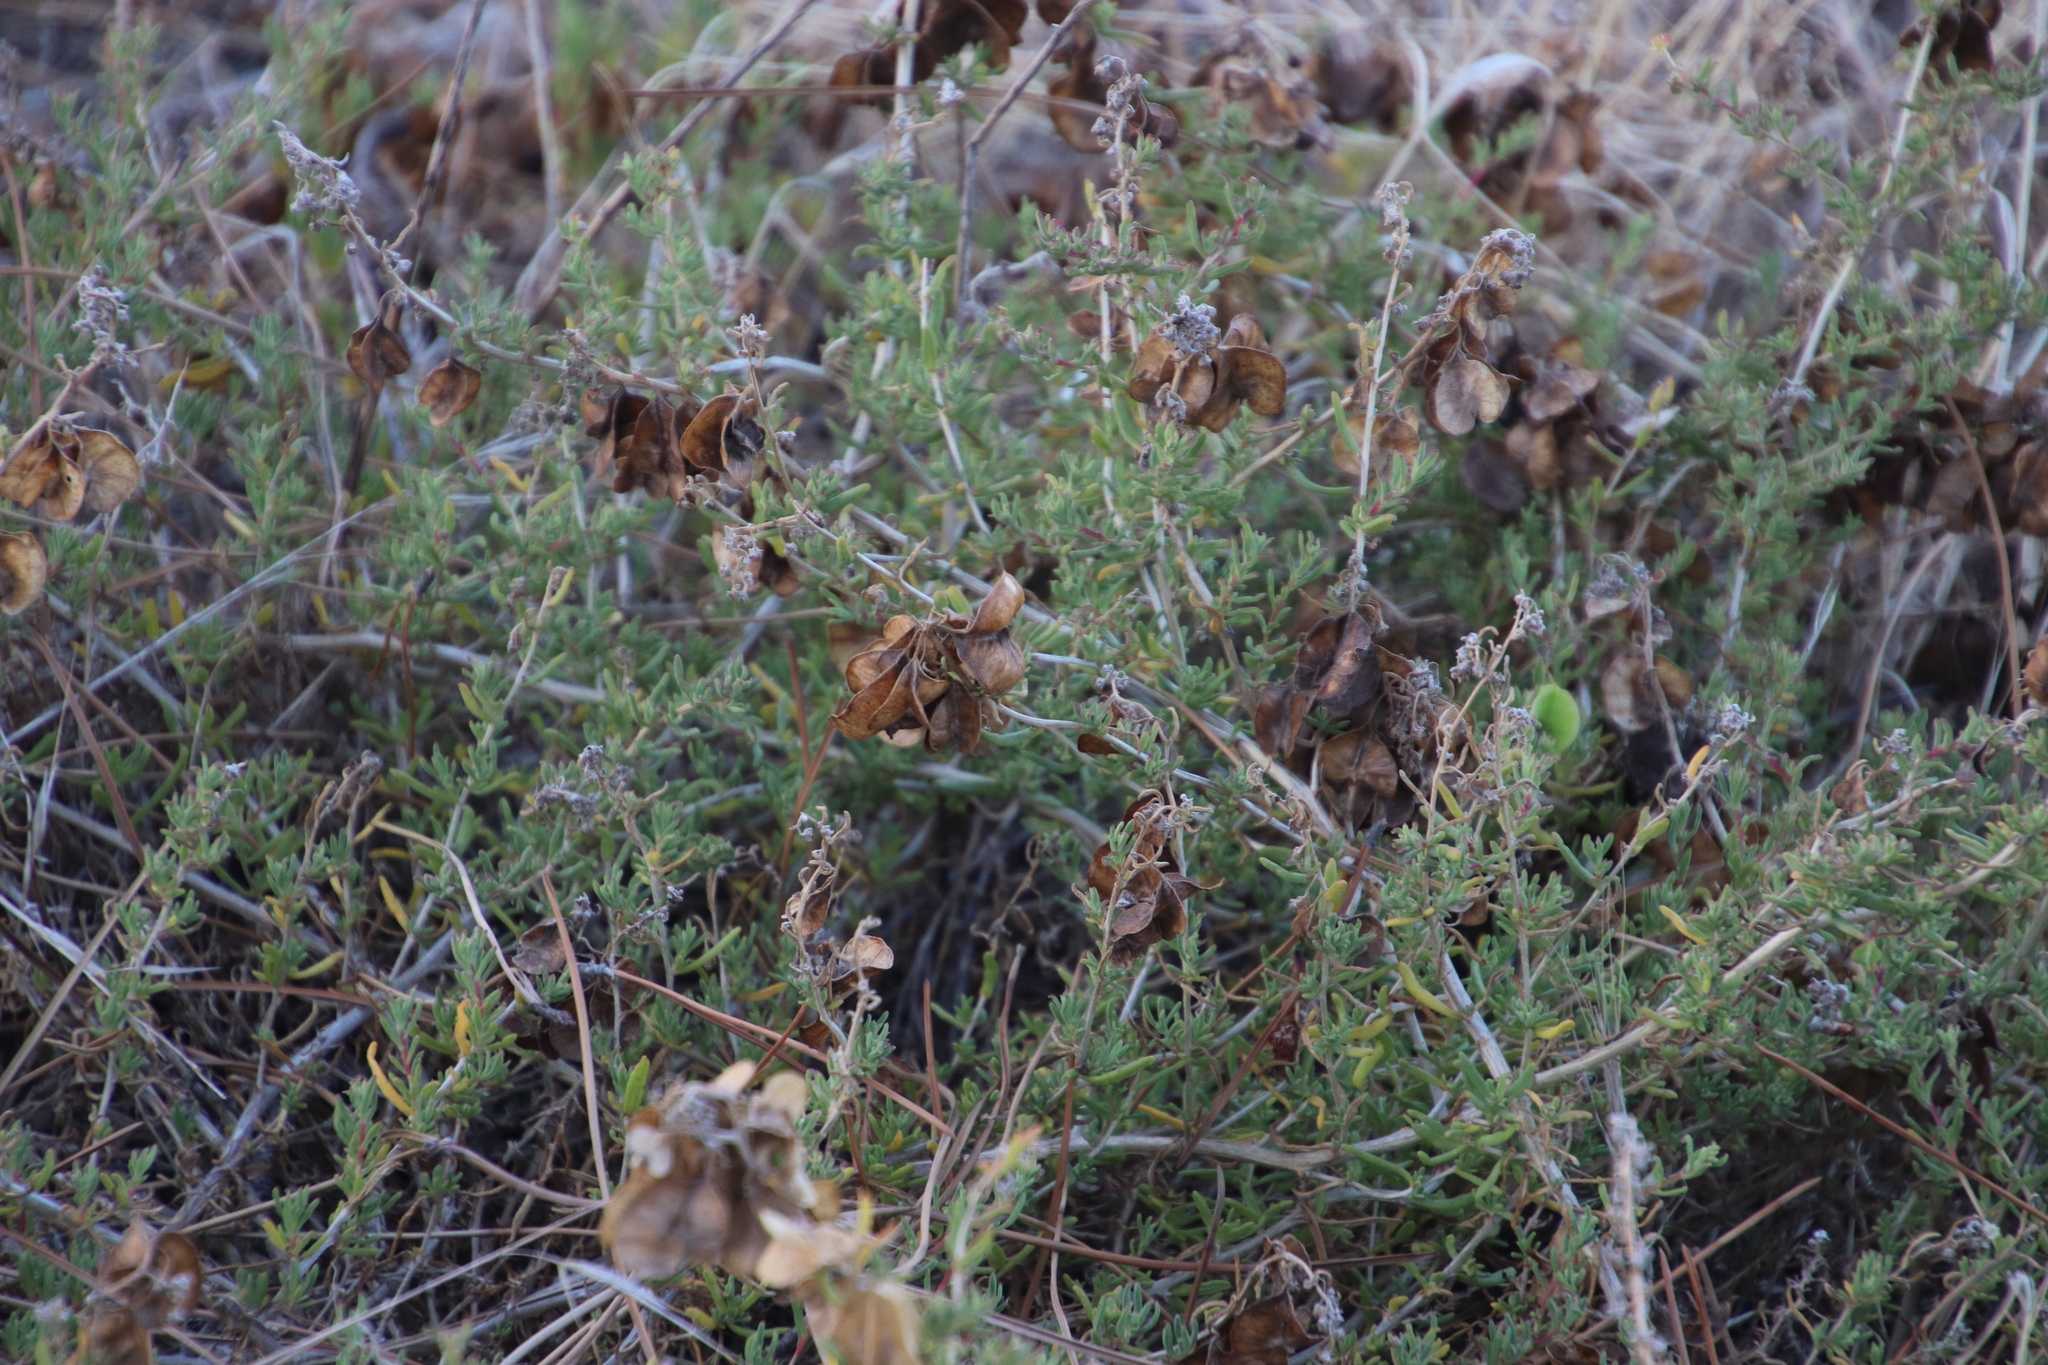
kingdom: Plantae
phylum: Tracheophyta
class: Magnoliopsida
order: Caryophyllales
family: Aizoaceae
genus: Tetragonia
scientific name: Tetragonia fruticosa
